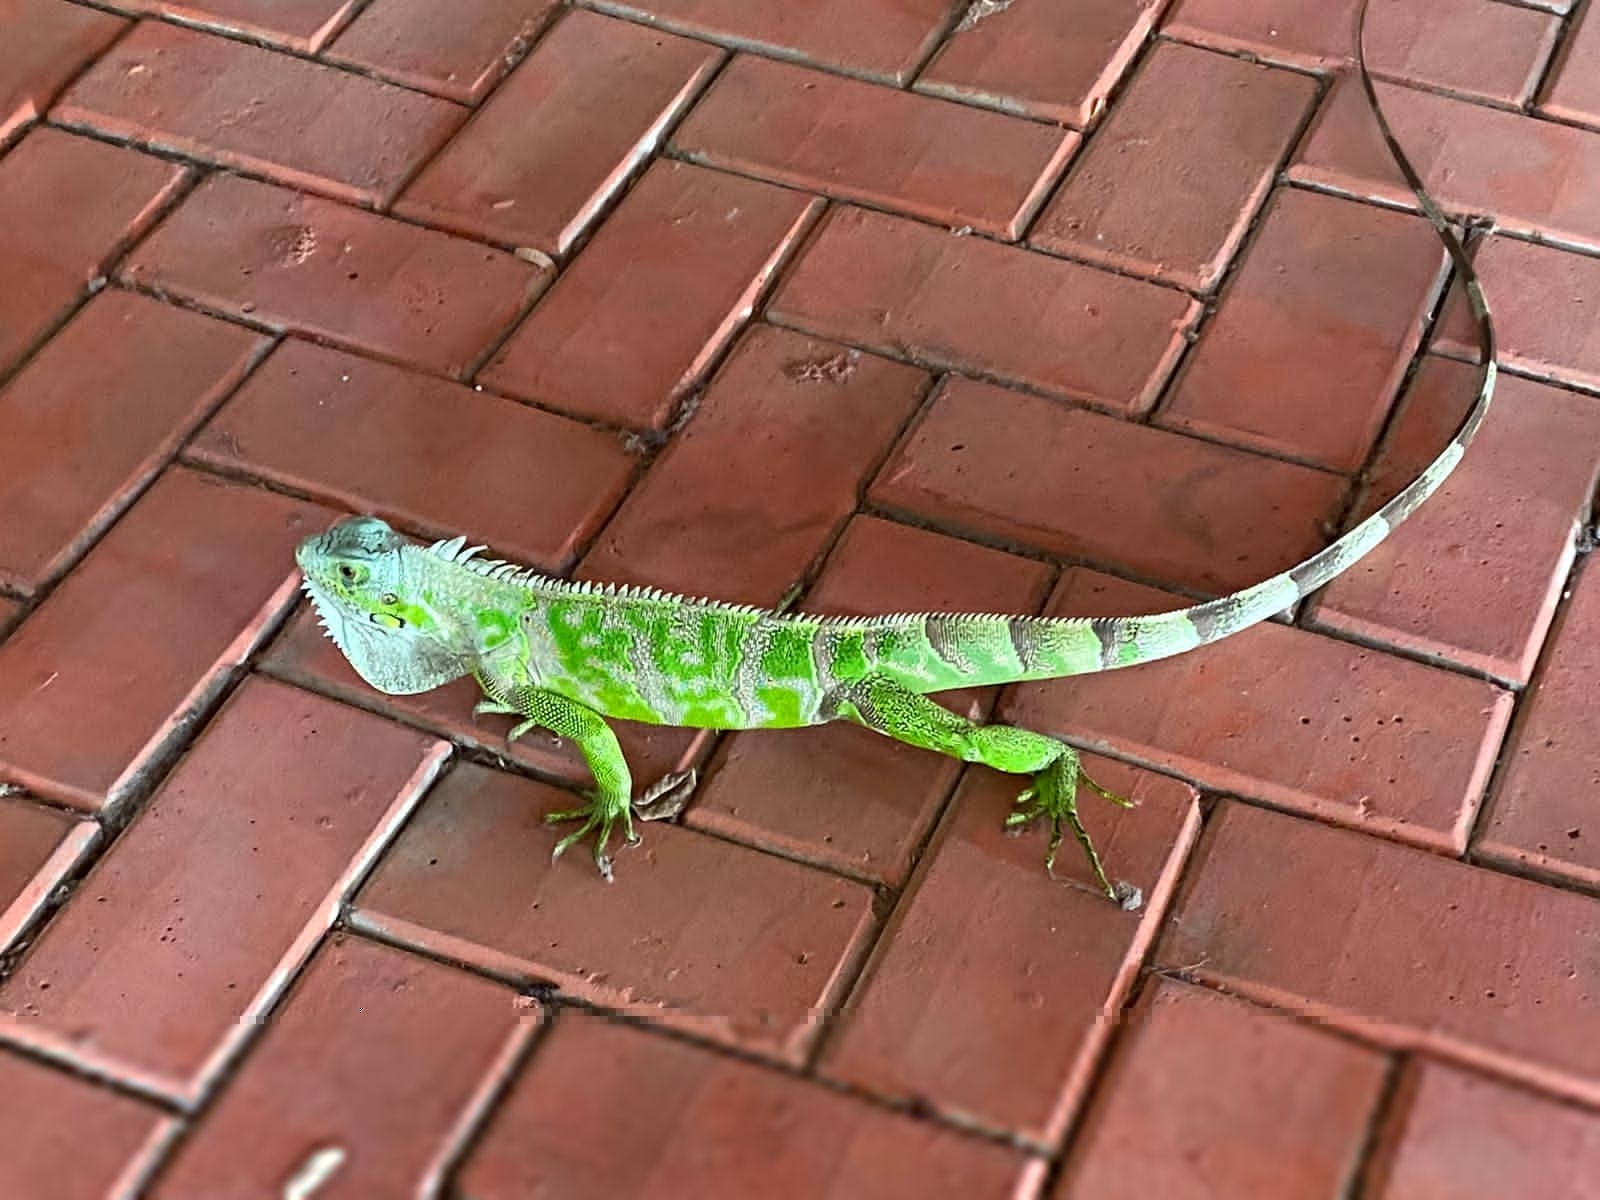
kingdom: Animalia
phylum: Chordata
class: Squamata
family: Iguanidae
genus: Iguana
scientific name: Iguana iguana
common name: Green iguana
